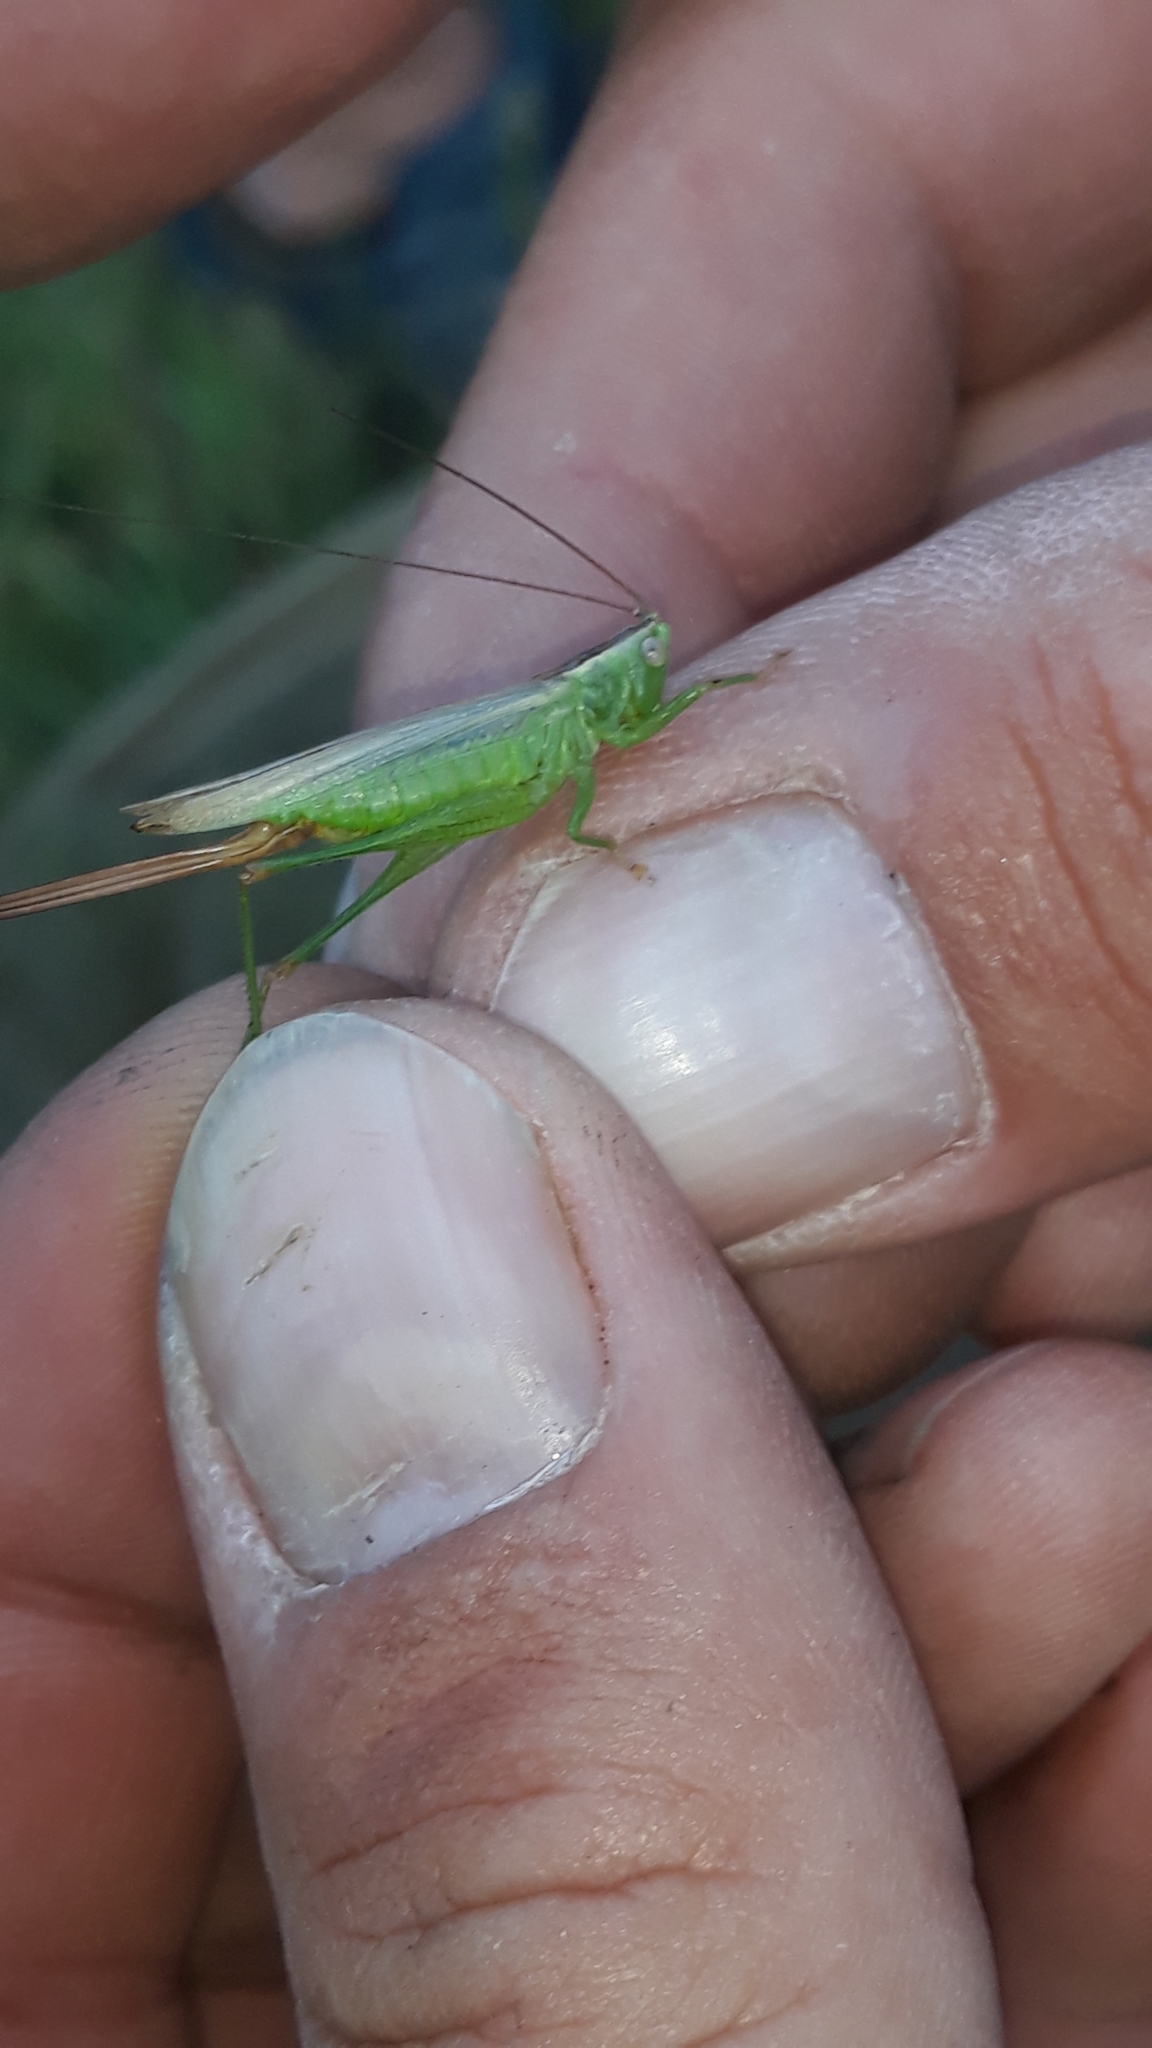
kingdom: Animalia
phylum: Arthropoda
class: Insecta
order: Orthoptera
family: Tettigoniidae
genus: Conocephalus
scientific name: Conocephalus fuscus
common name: Long-winged conehead
